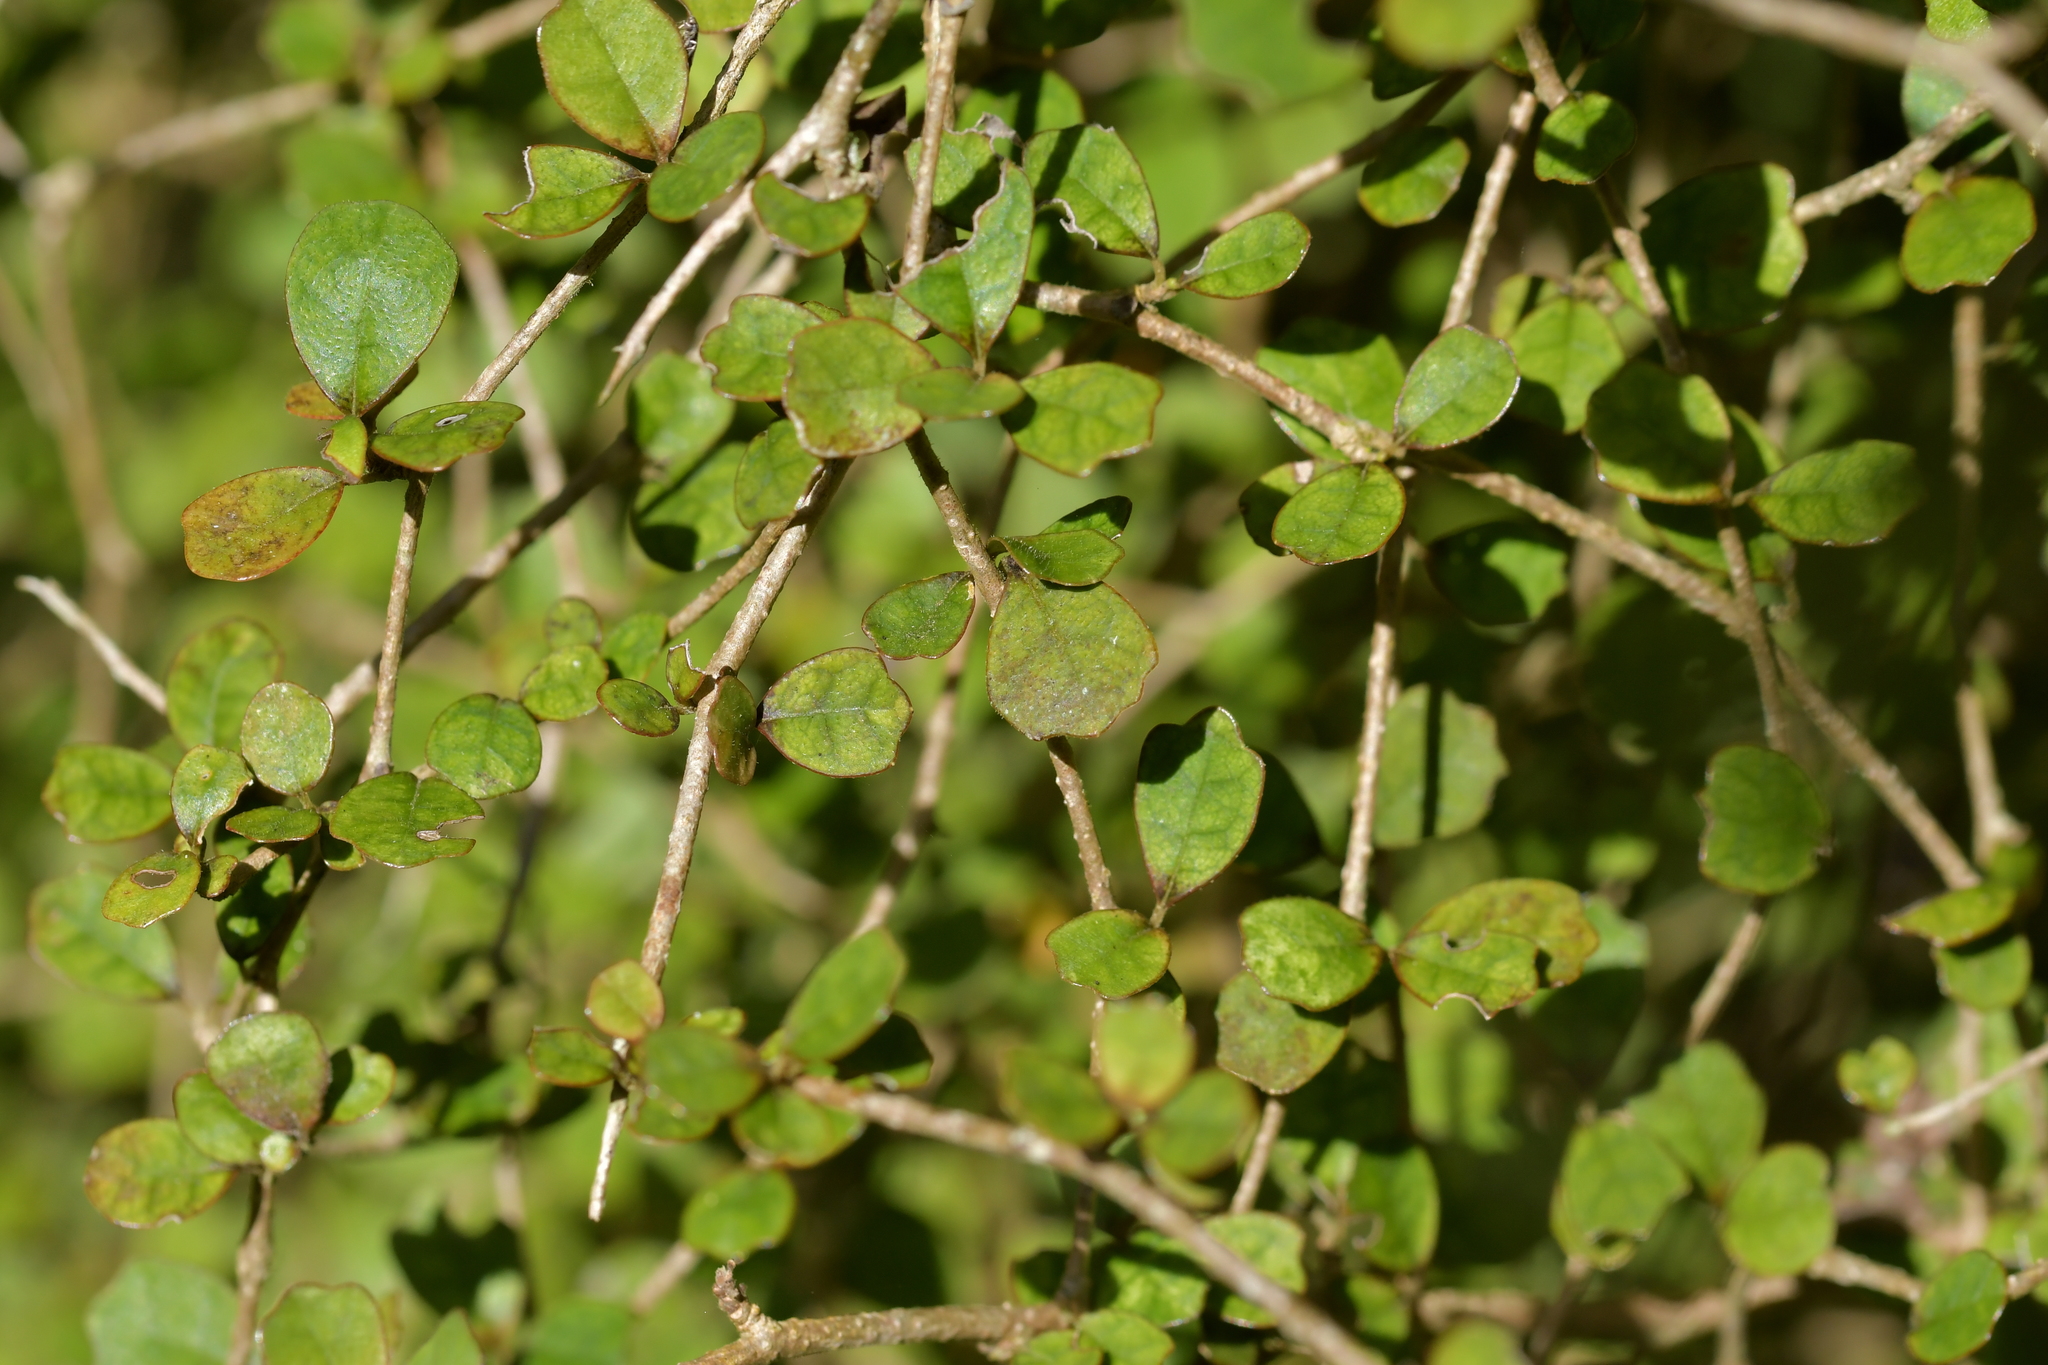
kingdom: Plantae
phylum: Tracheophyta
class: Magnoliopsida
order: Apiales
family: Pennantiaceae
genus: Pennantia
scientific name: Pennantia corymbosa
